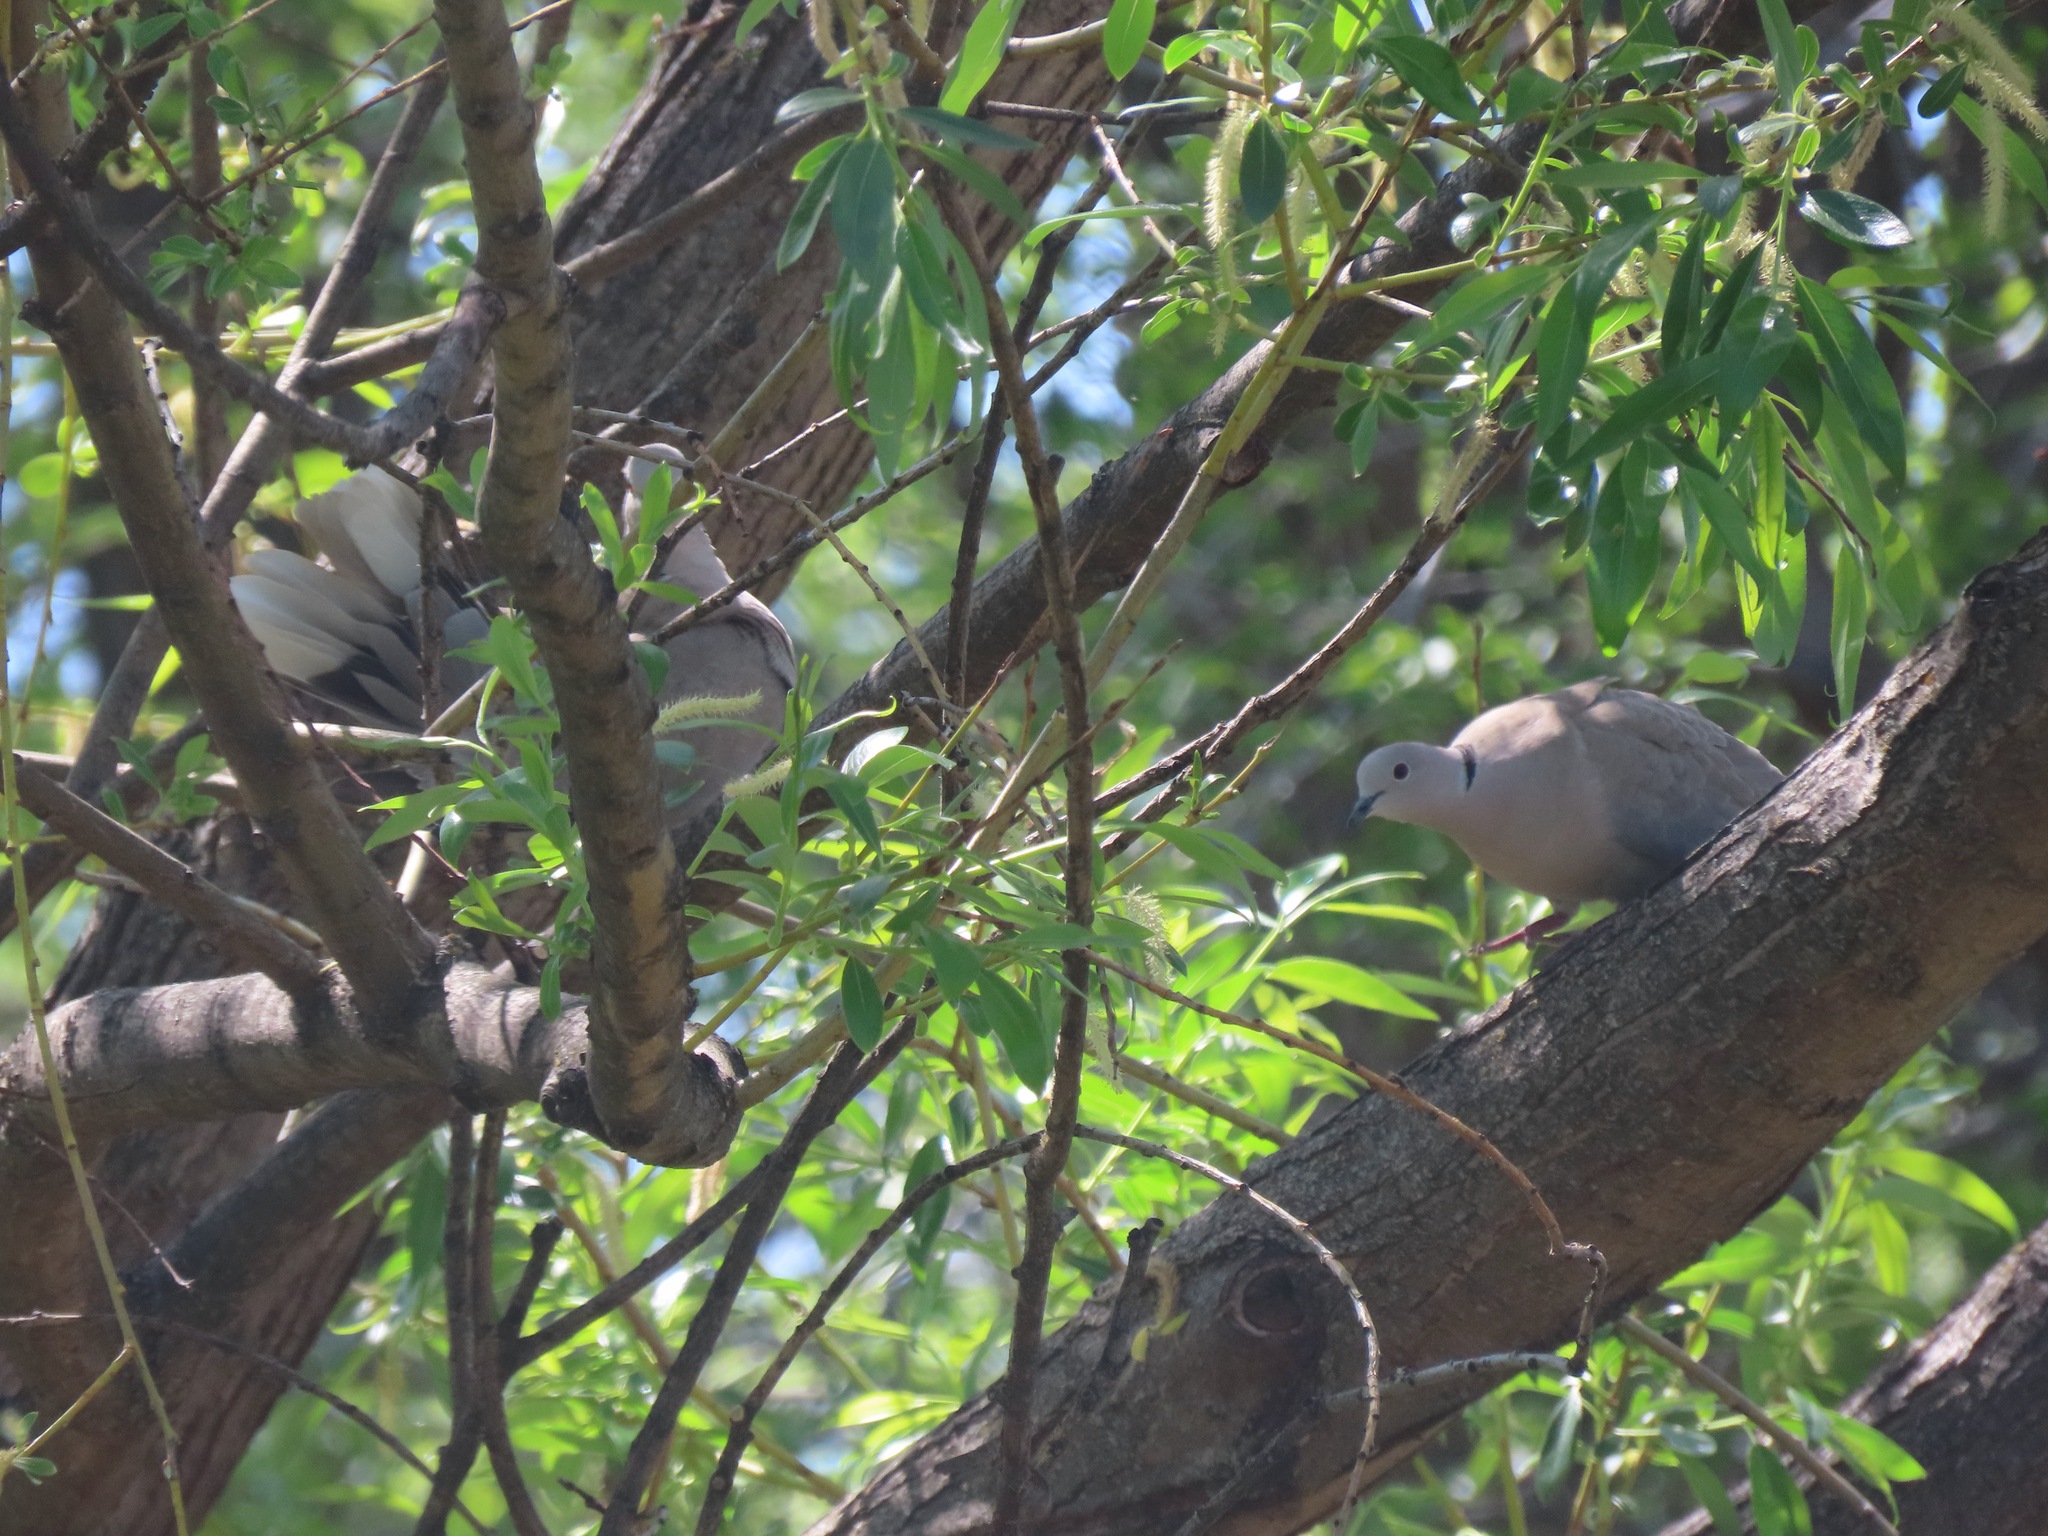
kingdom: Animalia
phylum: Chordata
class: Aves
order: Columbiformes
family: Columbidae
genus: Streptopelia
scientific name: Streptopelia decaocto
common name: Eurasian collared dove
